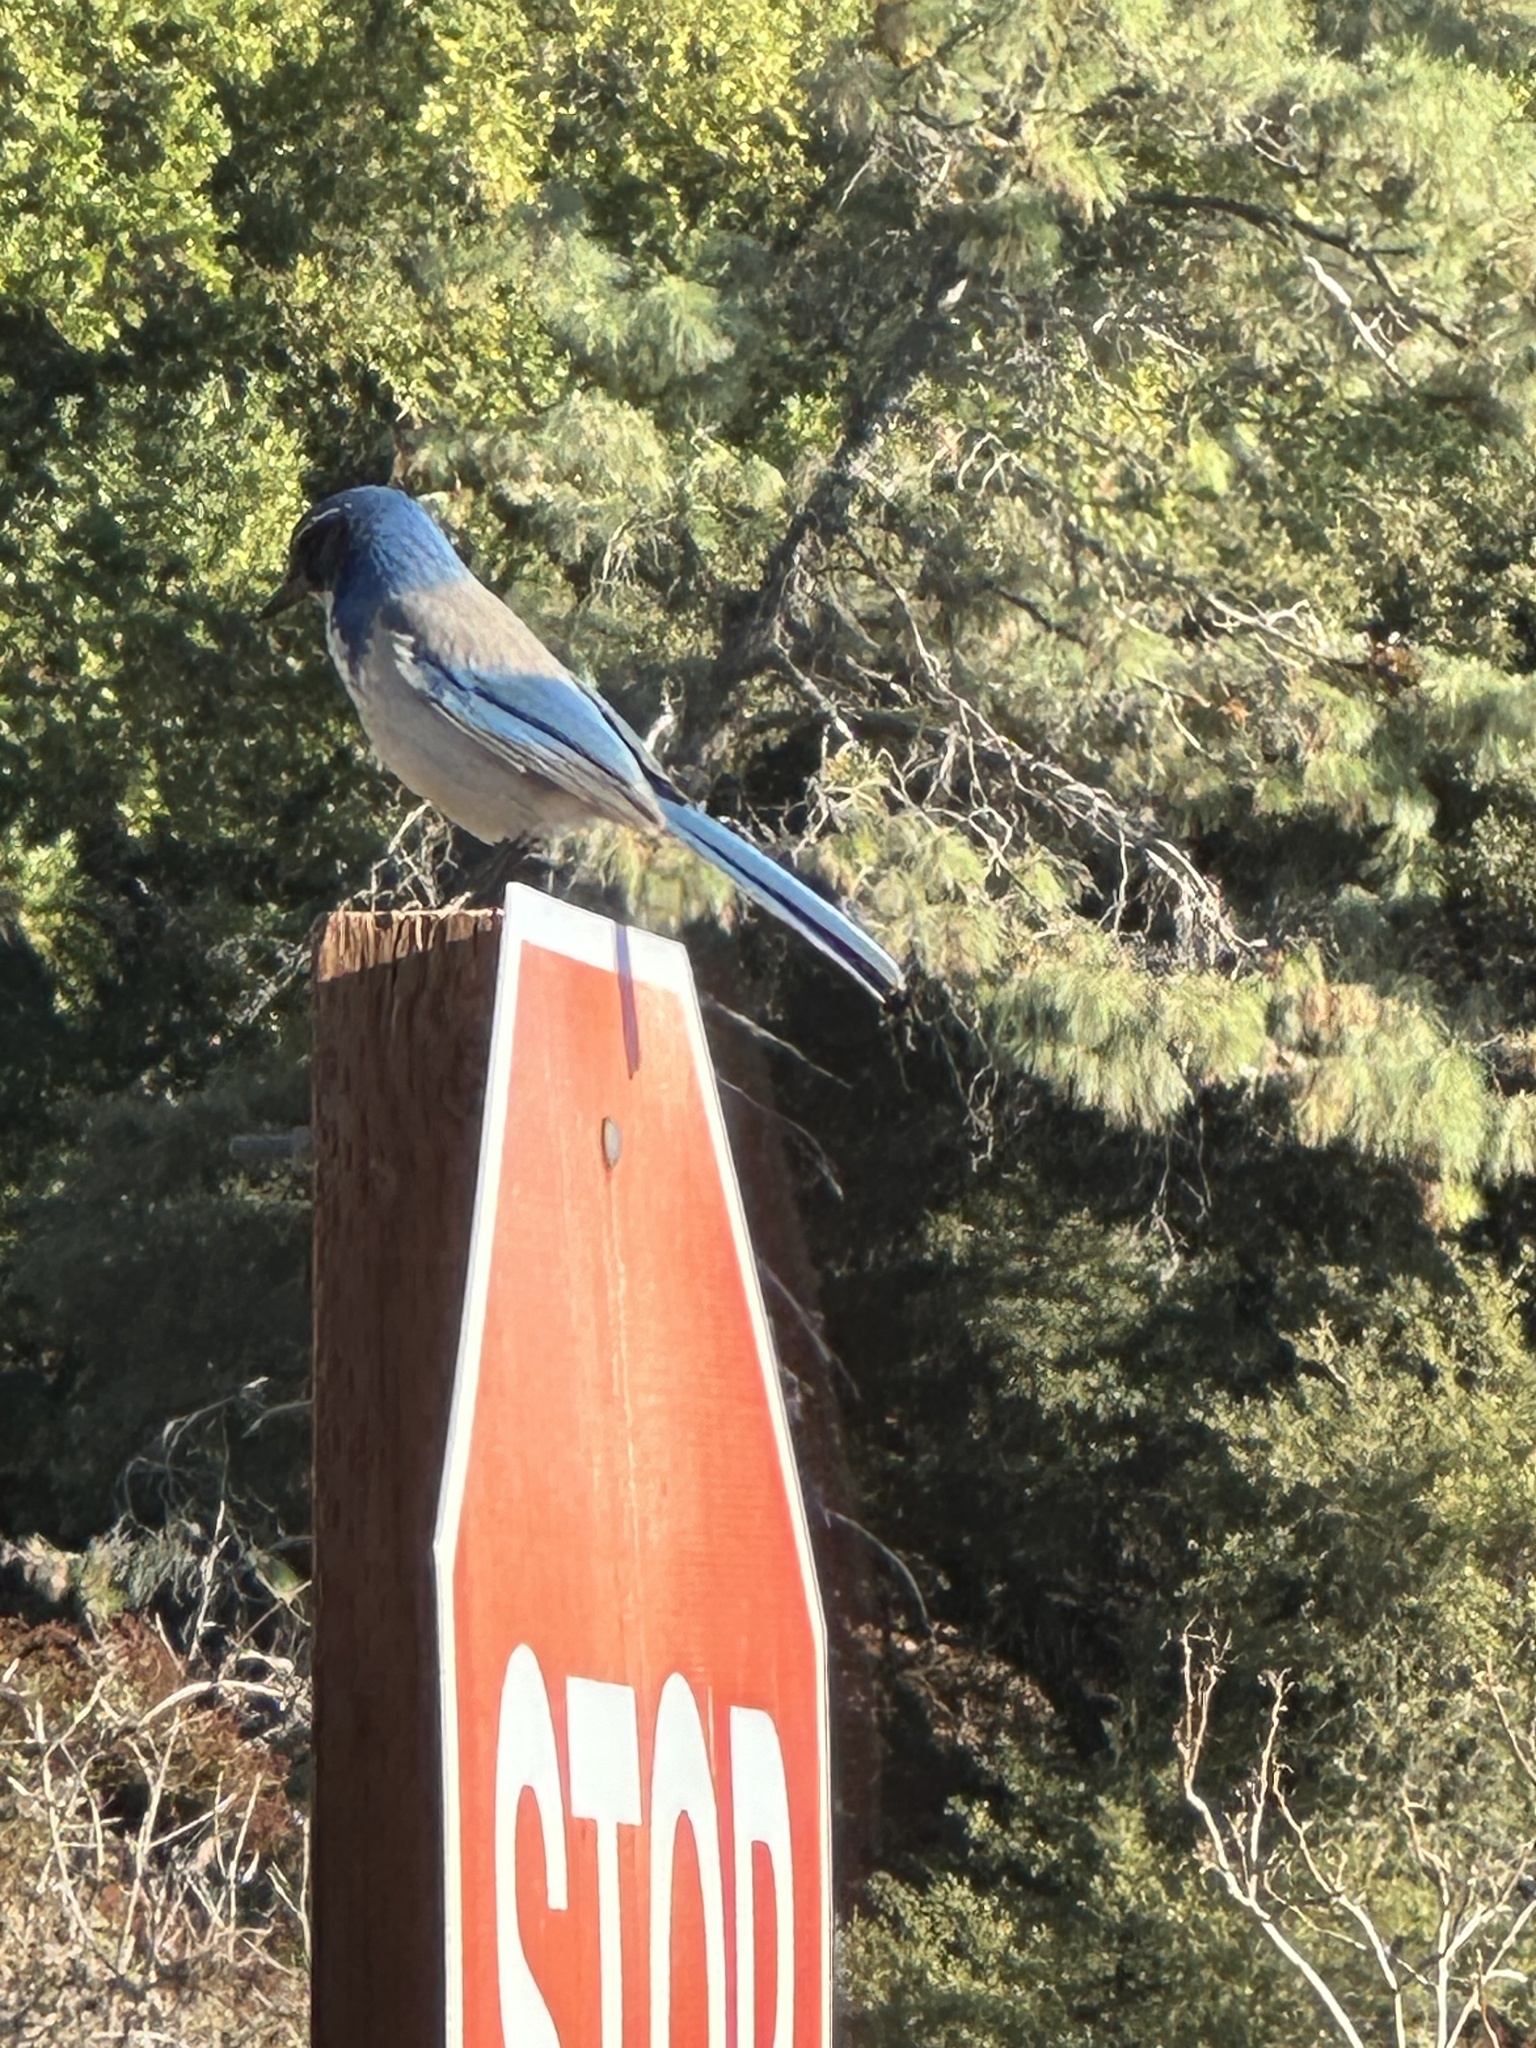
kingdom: Animalia
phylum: Chordata
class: Aves
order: Passeriformes
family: Corvidae
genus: Aphelocoma
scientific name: Aphelocoma californica
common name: California scrub-jay
